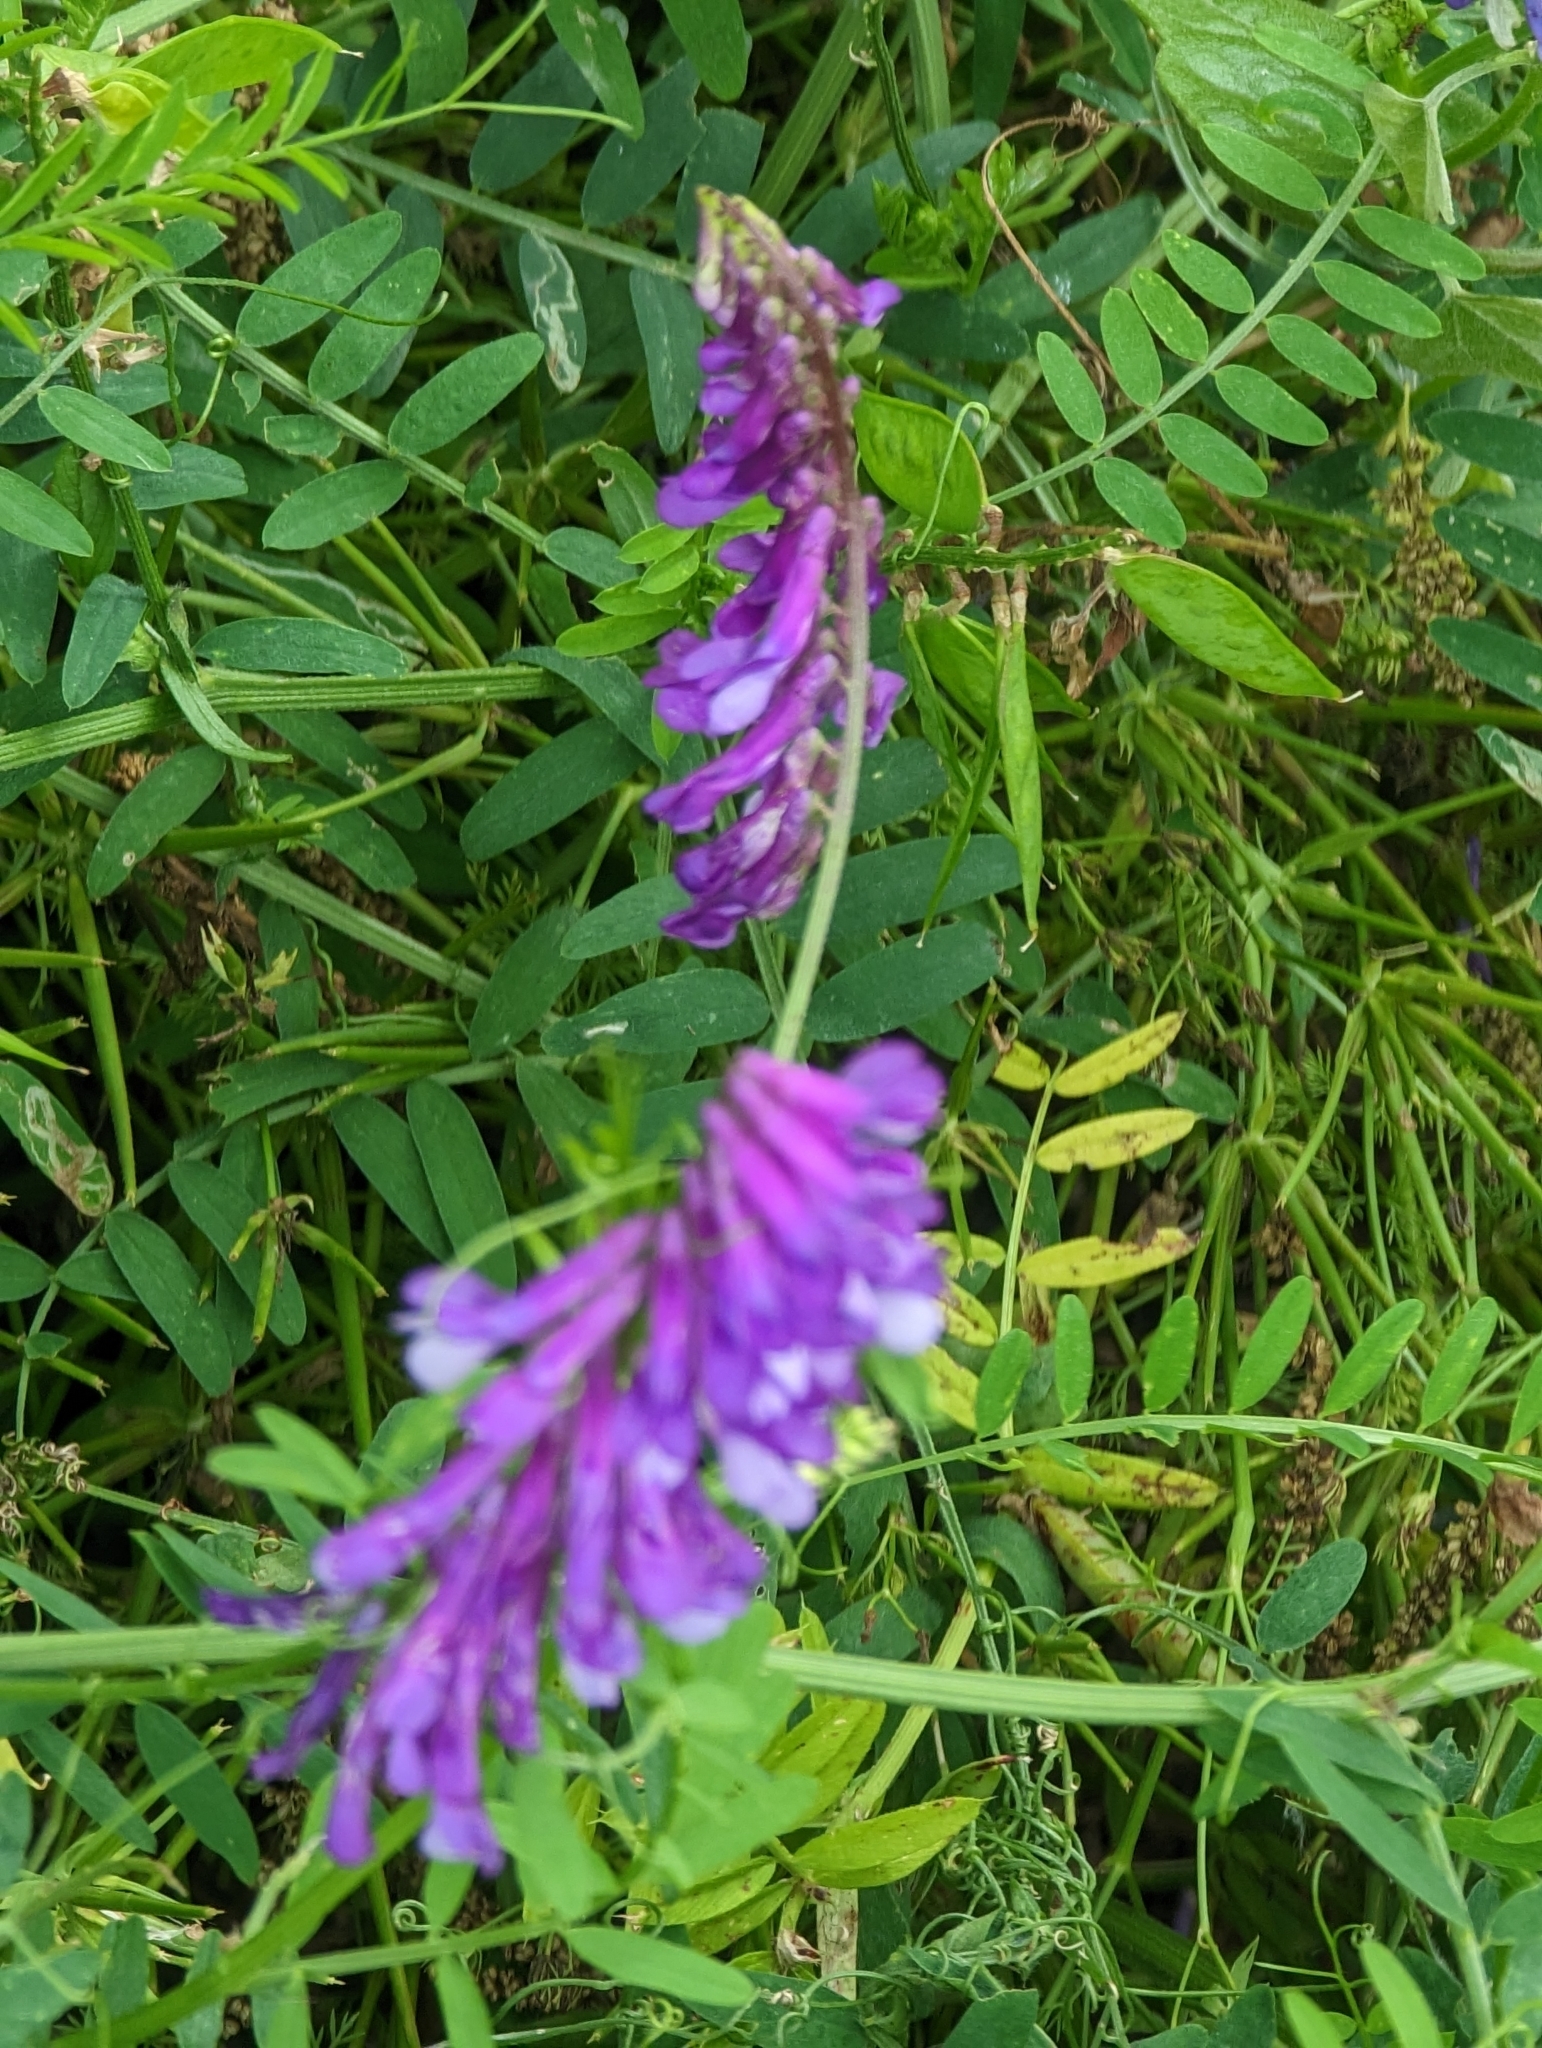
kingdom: Plantae
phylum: Tracheophyta
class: Magnoliopsida
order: Fabales
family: Fabaceae
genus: Vicia
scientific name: Vicia villosa
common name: Fodder vetch
